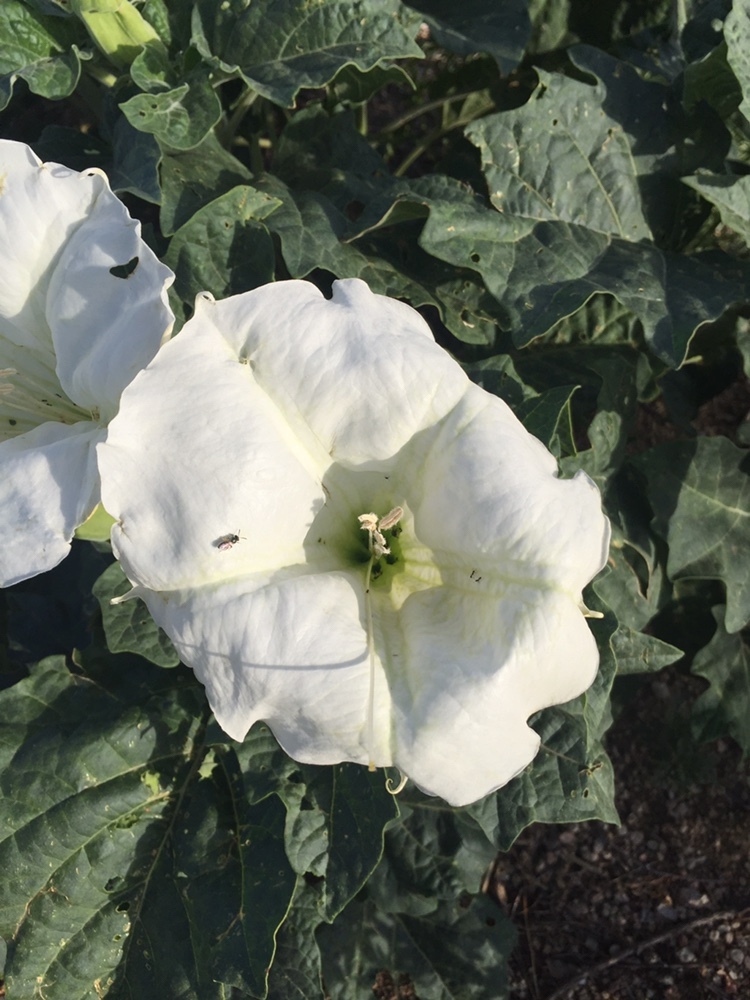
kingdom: Plantae
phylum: Tracheophyta
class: Magnoliopsida
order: Solanales
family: Solanaceae
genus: Datura
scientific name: Datura wrightii
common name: Sacred thorn-apple
